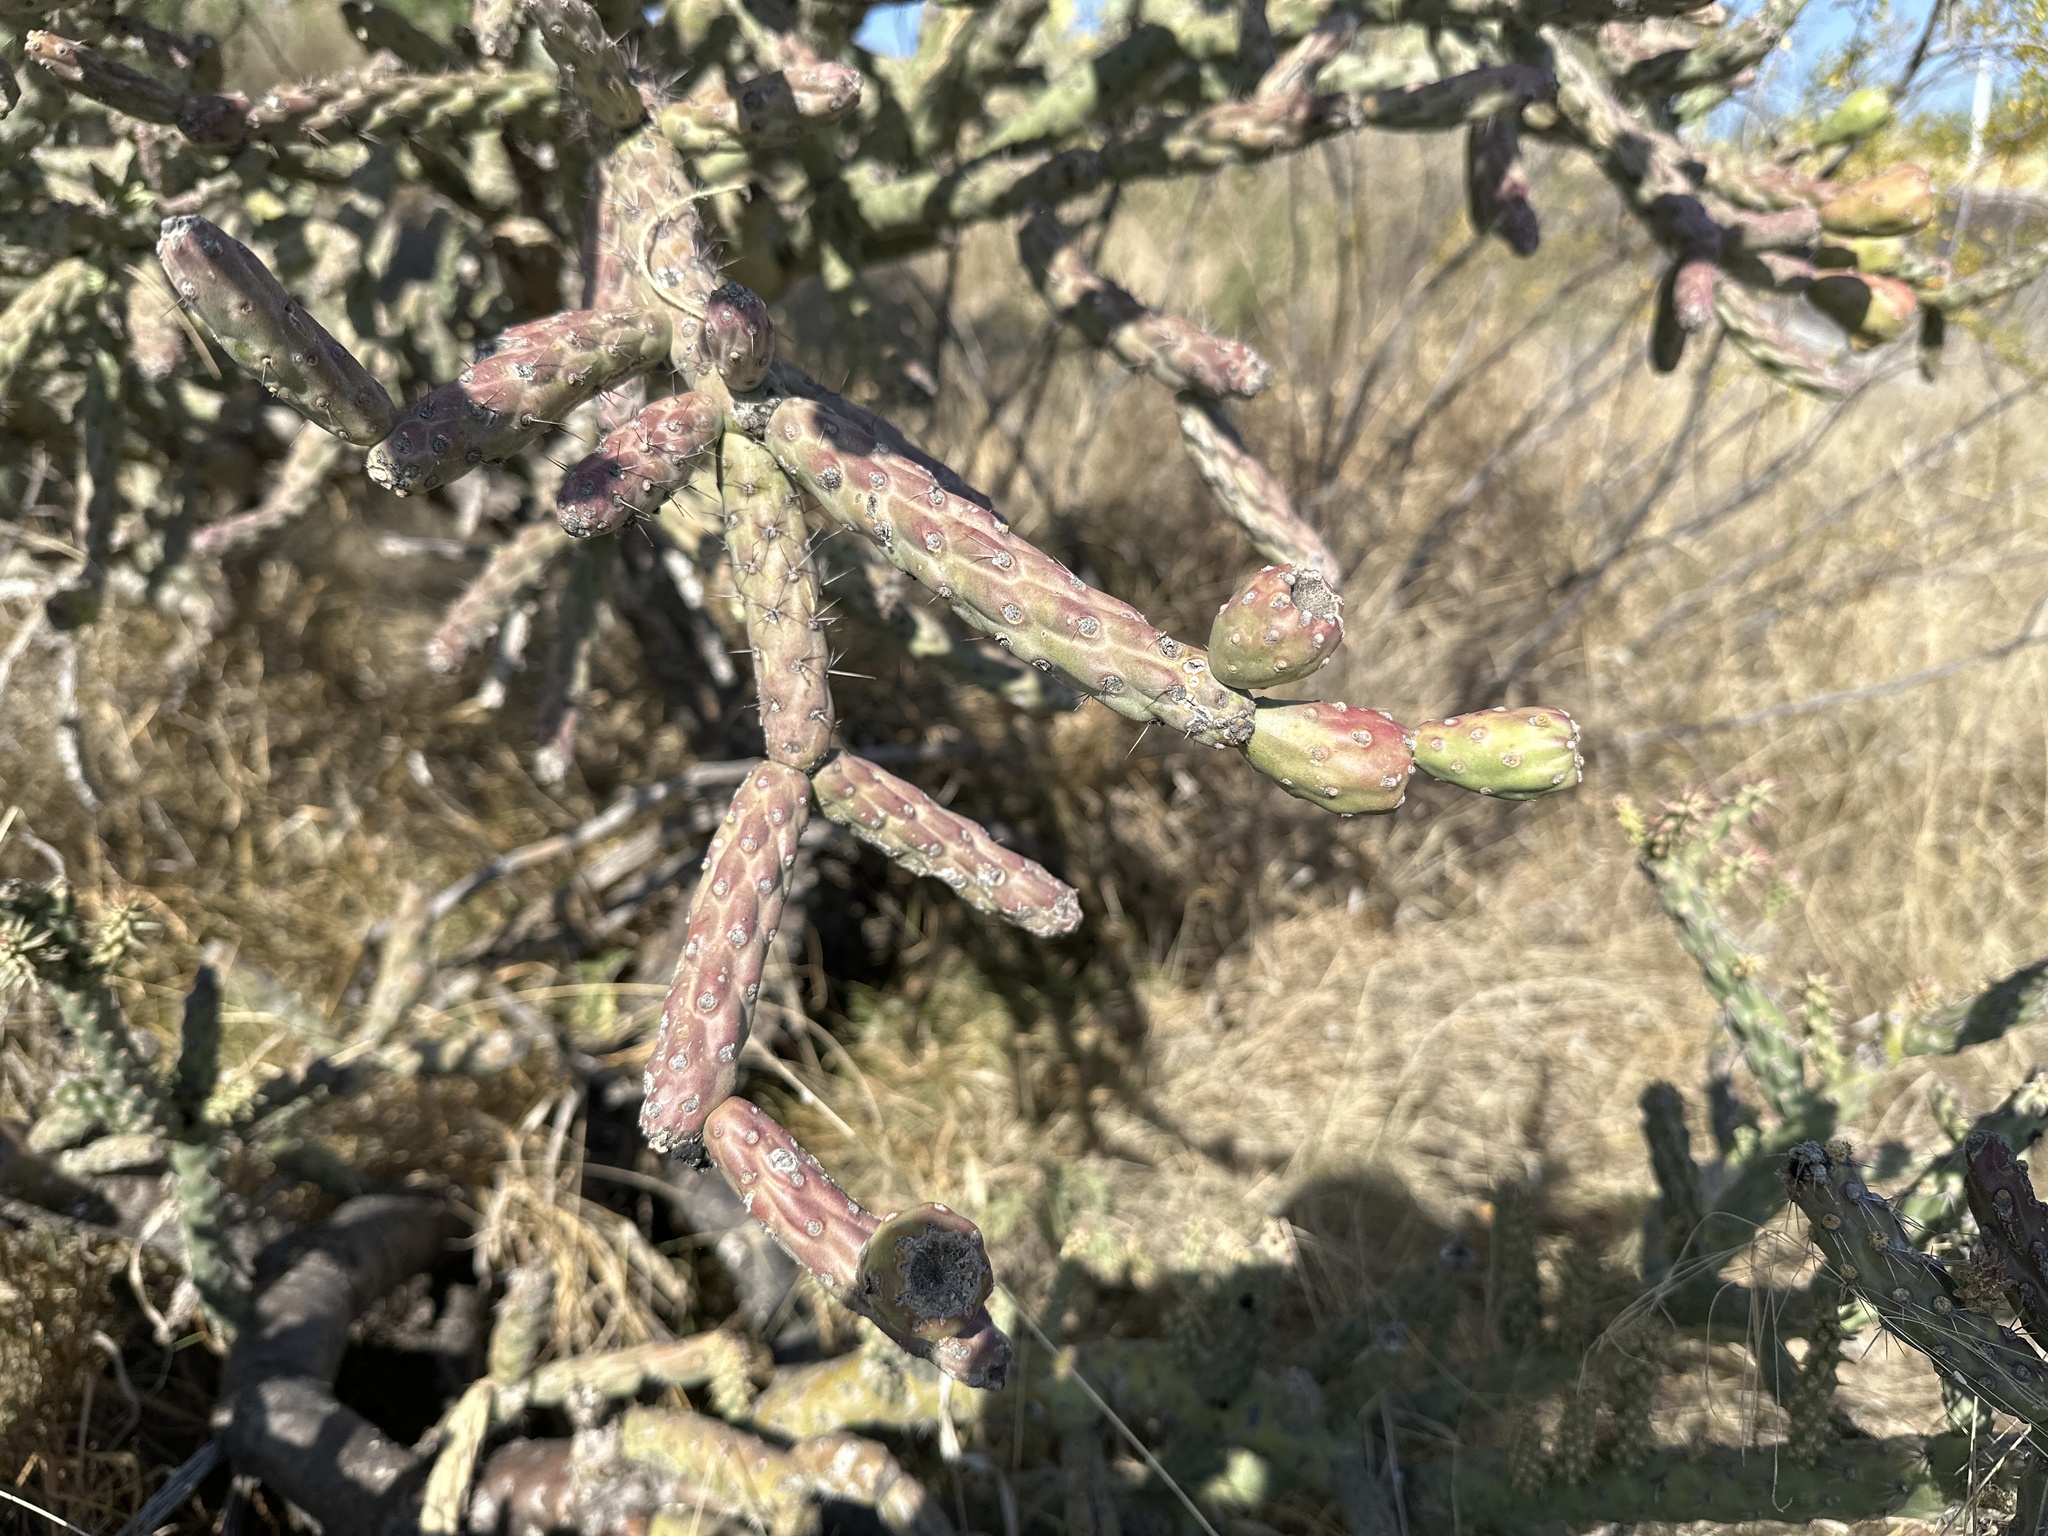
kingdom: Plantae
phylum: Tracheophyta
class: Magnoliopsida
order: Caryophyllales
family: Cactaceae
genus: Cylindropuntia
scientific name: Cylindropuntia thurberi
